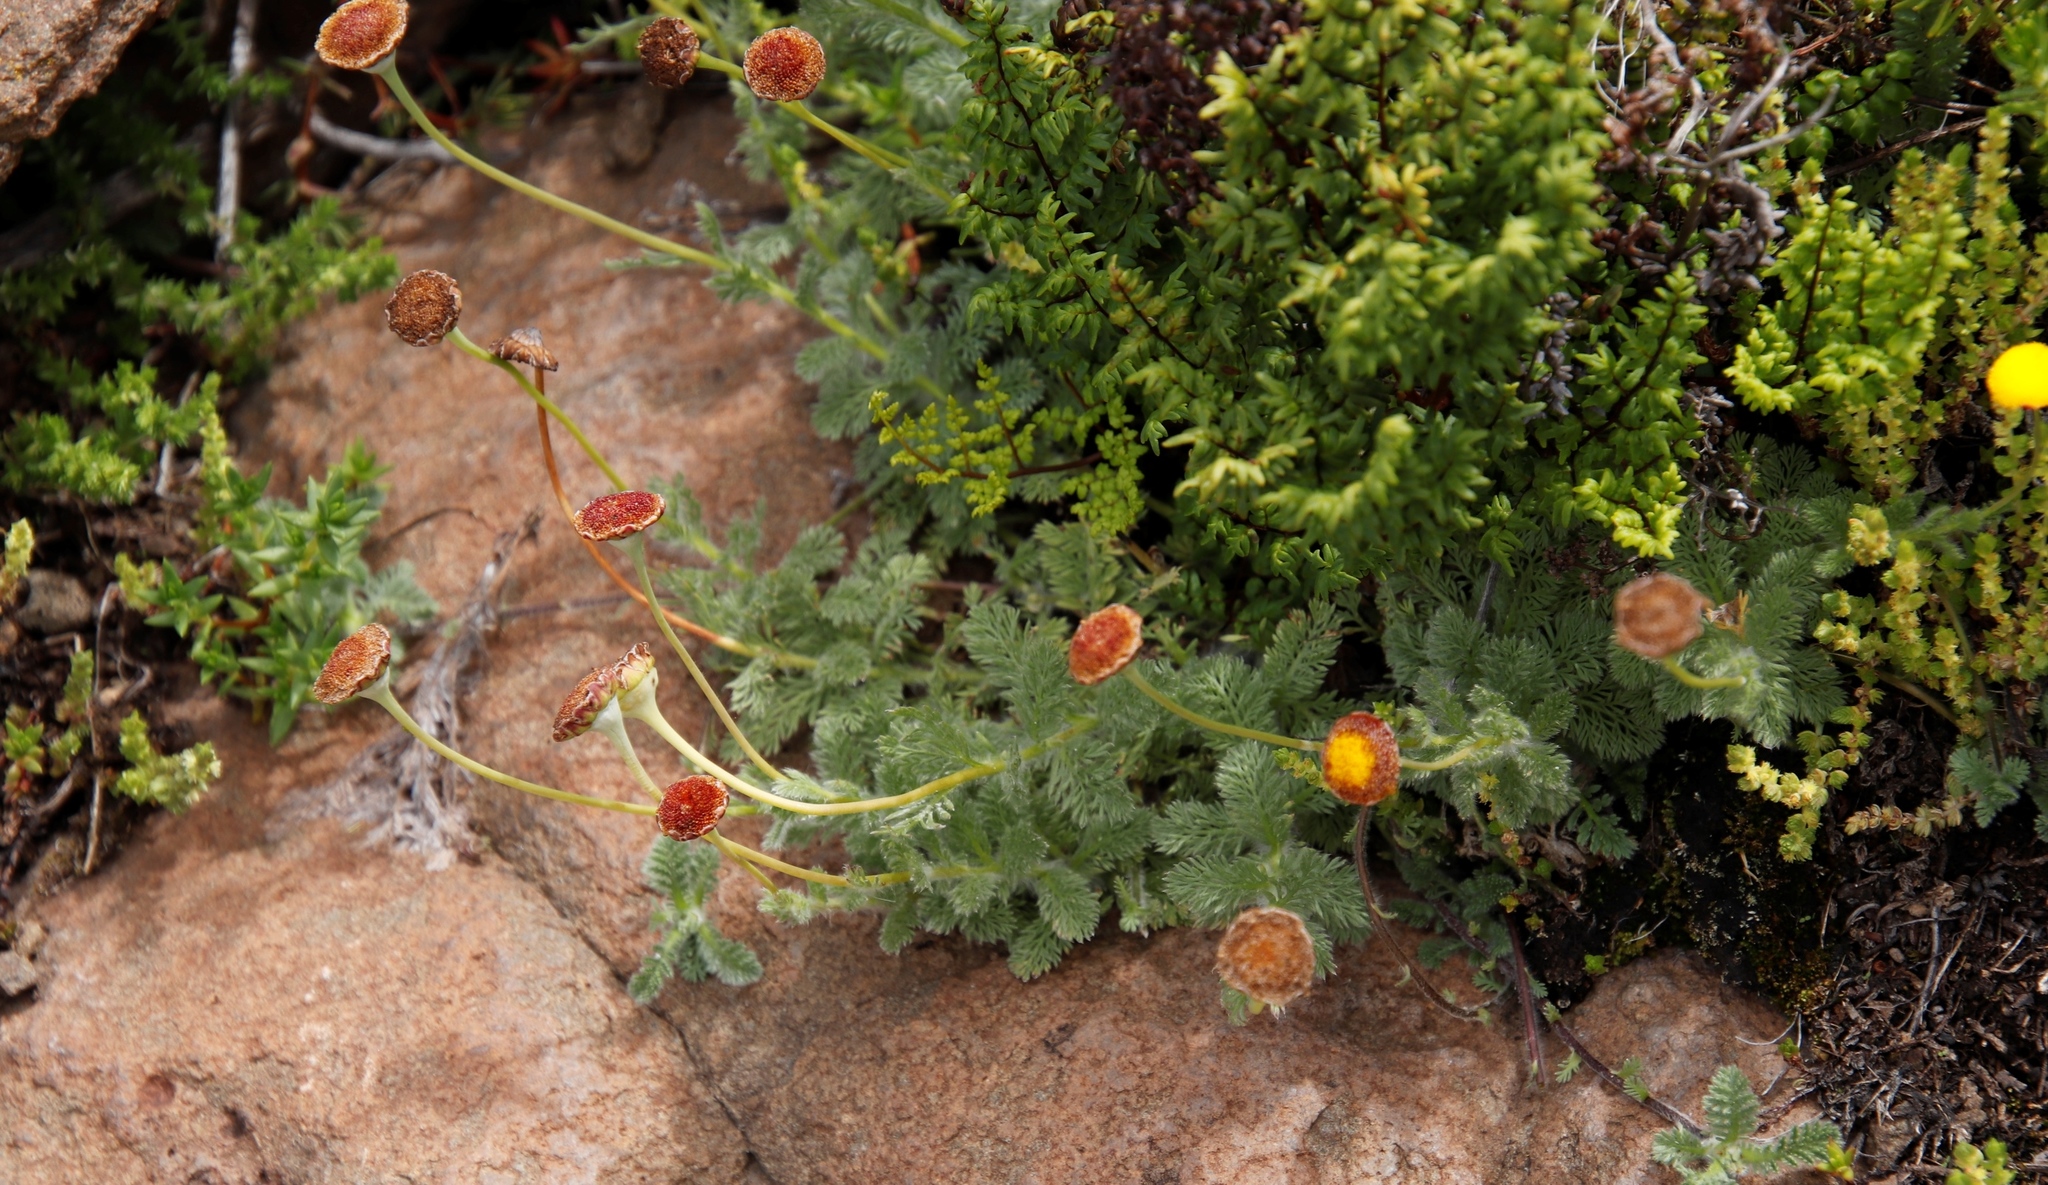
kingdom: Plantae
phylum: Tracheophyta
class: Magnoliopsida
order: Asterales
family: Asteraceae
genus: Cotula
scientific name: Cotula socialis
